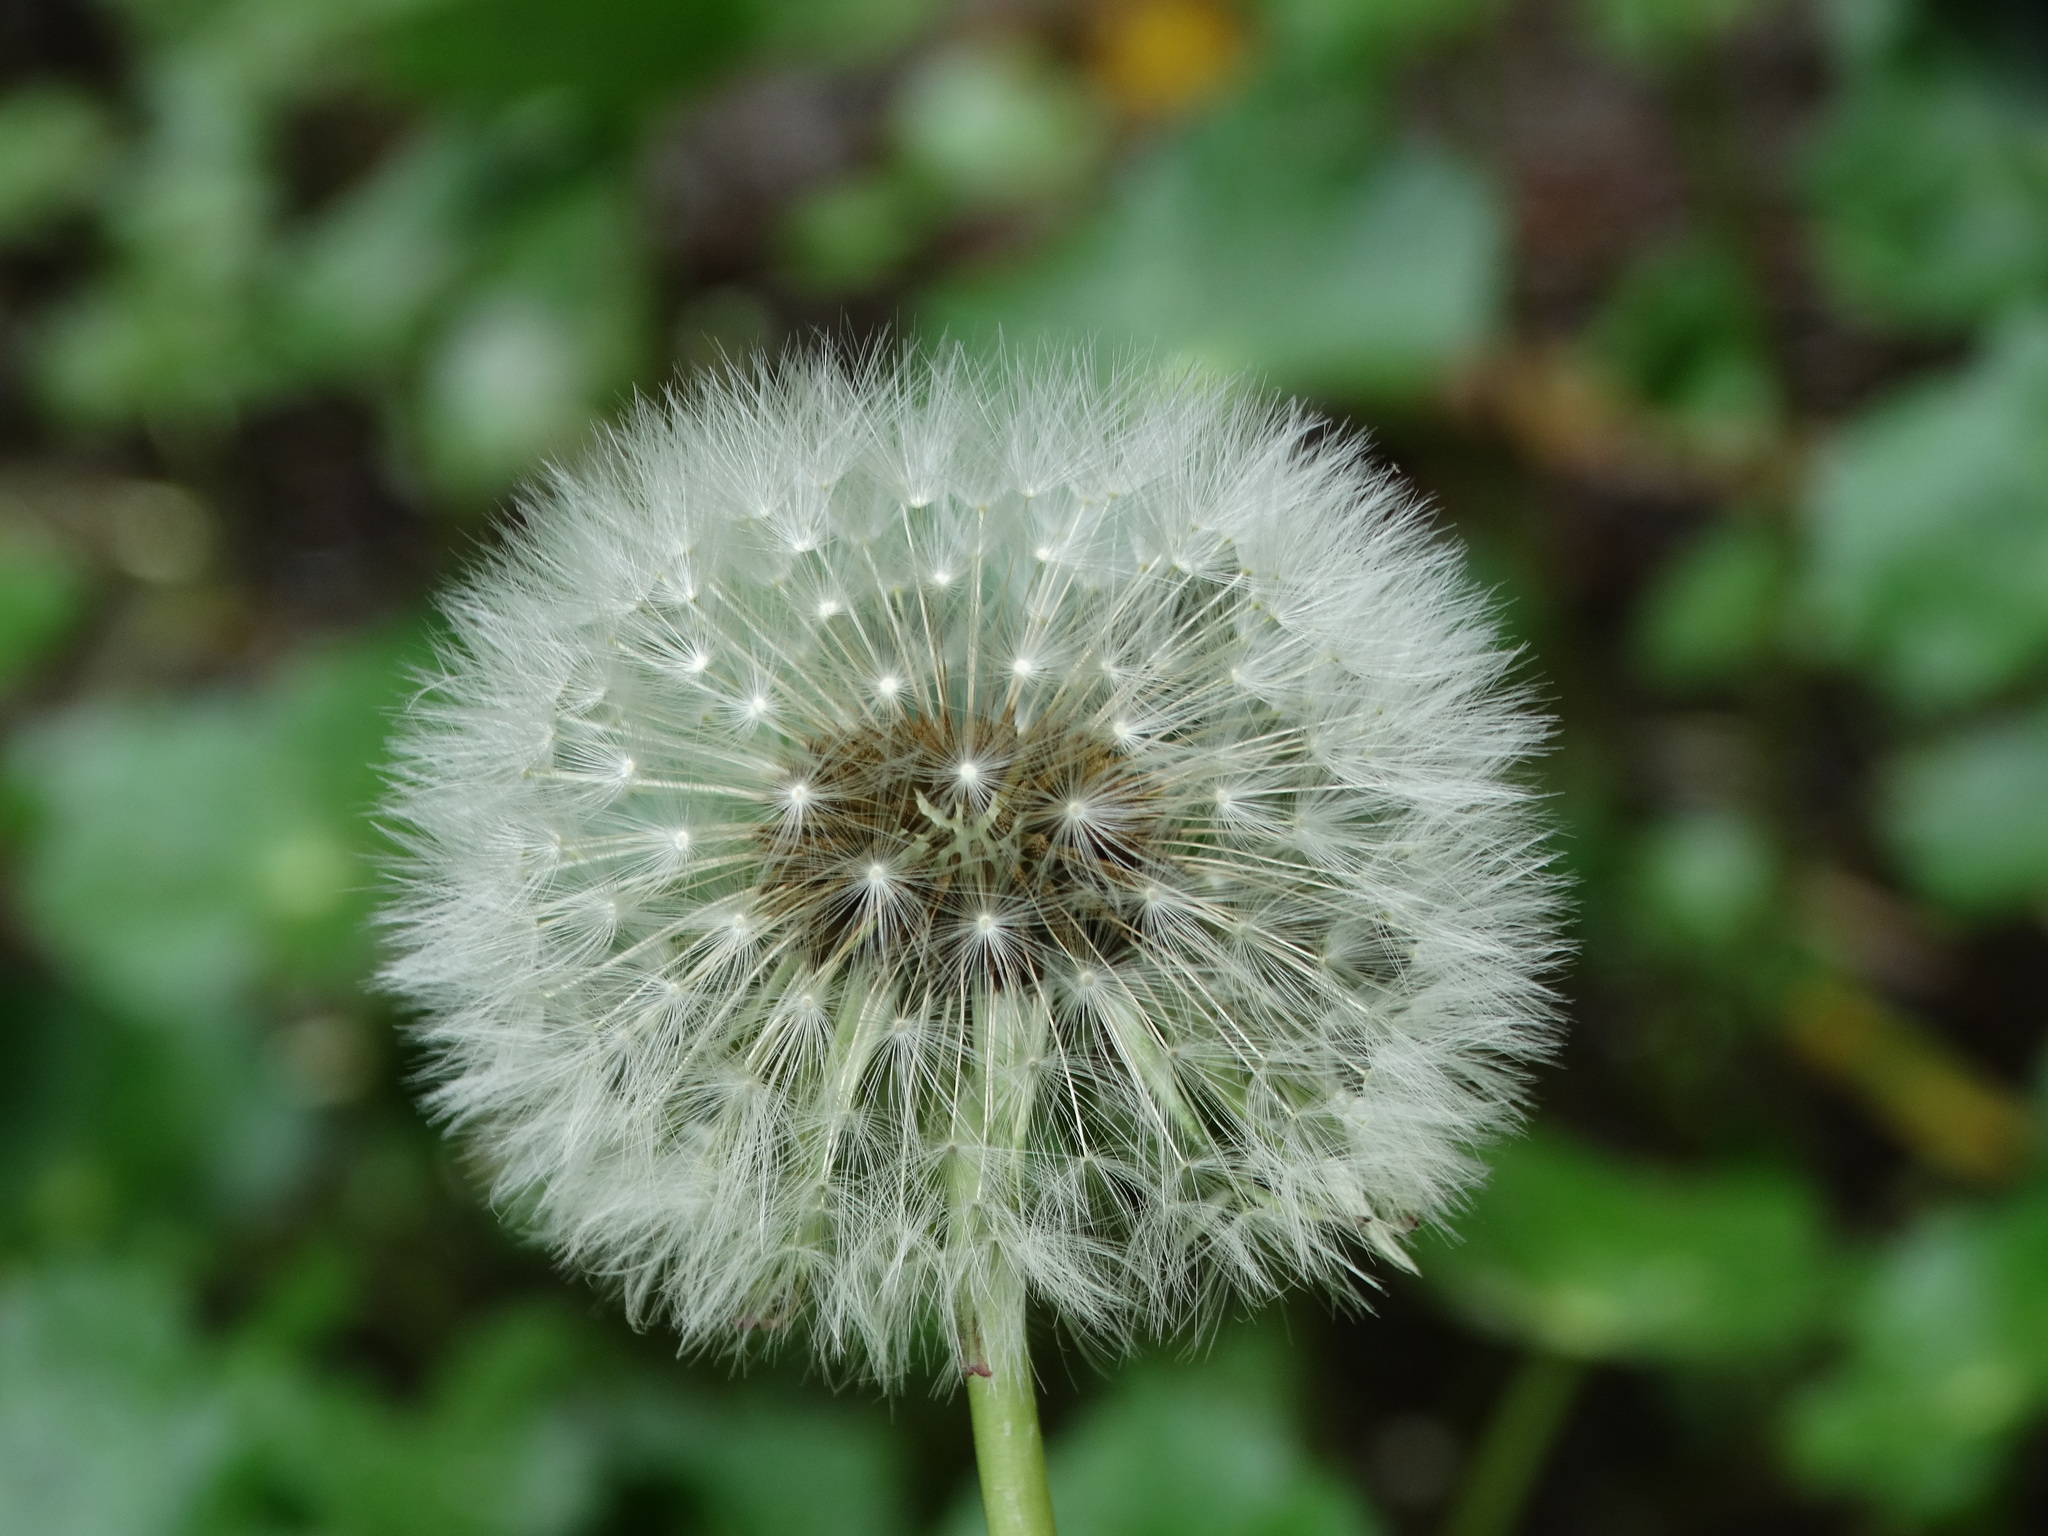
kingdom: Plantae
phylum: Tracheophyta
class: Magnoliopsida
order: Asterales
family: Asteraceae
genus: Taraxacum
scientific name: Taraxacum officinale
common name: Common dandelion
